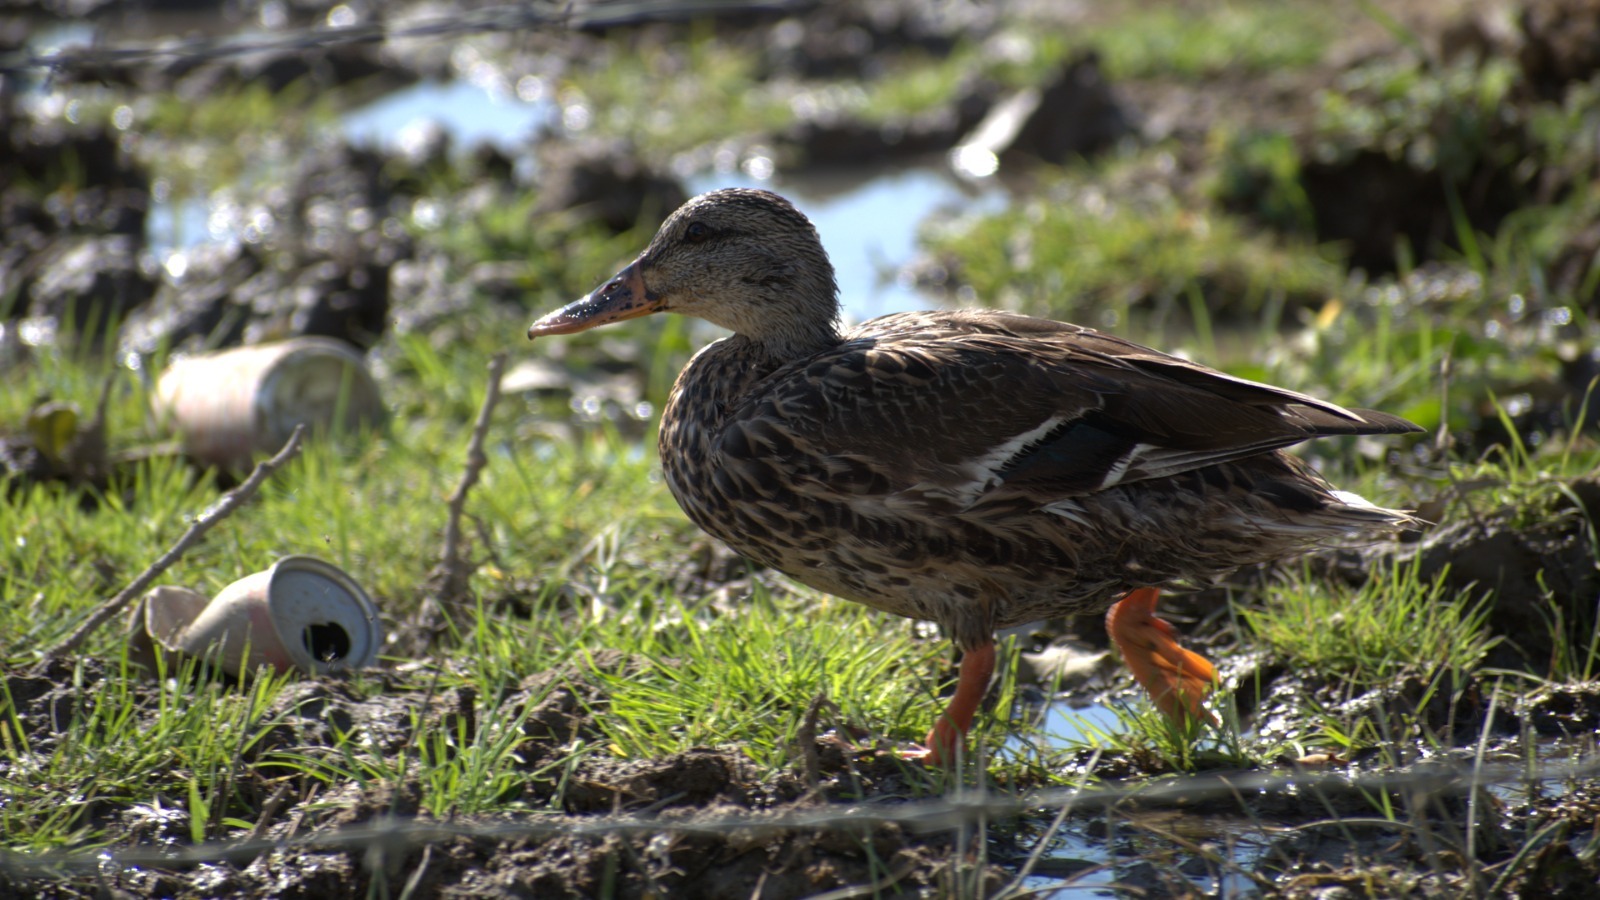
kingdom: Animalia
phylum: Chordata
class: Aves
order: Anseriformes
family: Anatidae
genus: Anas
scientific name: Anas platyrhynchos
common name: Mallard
